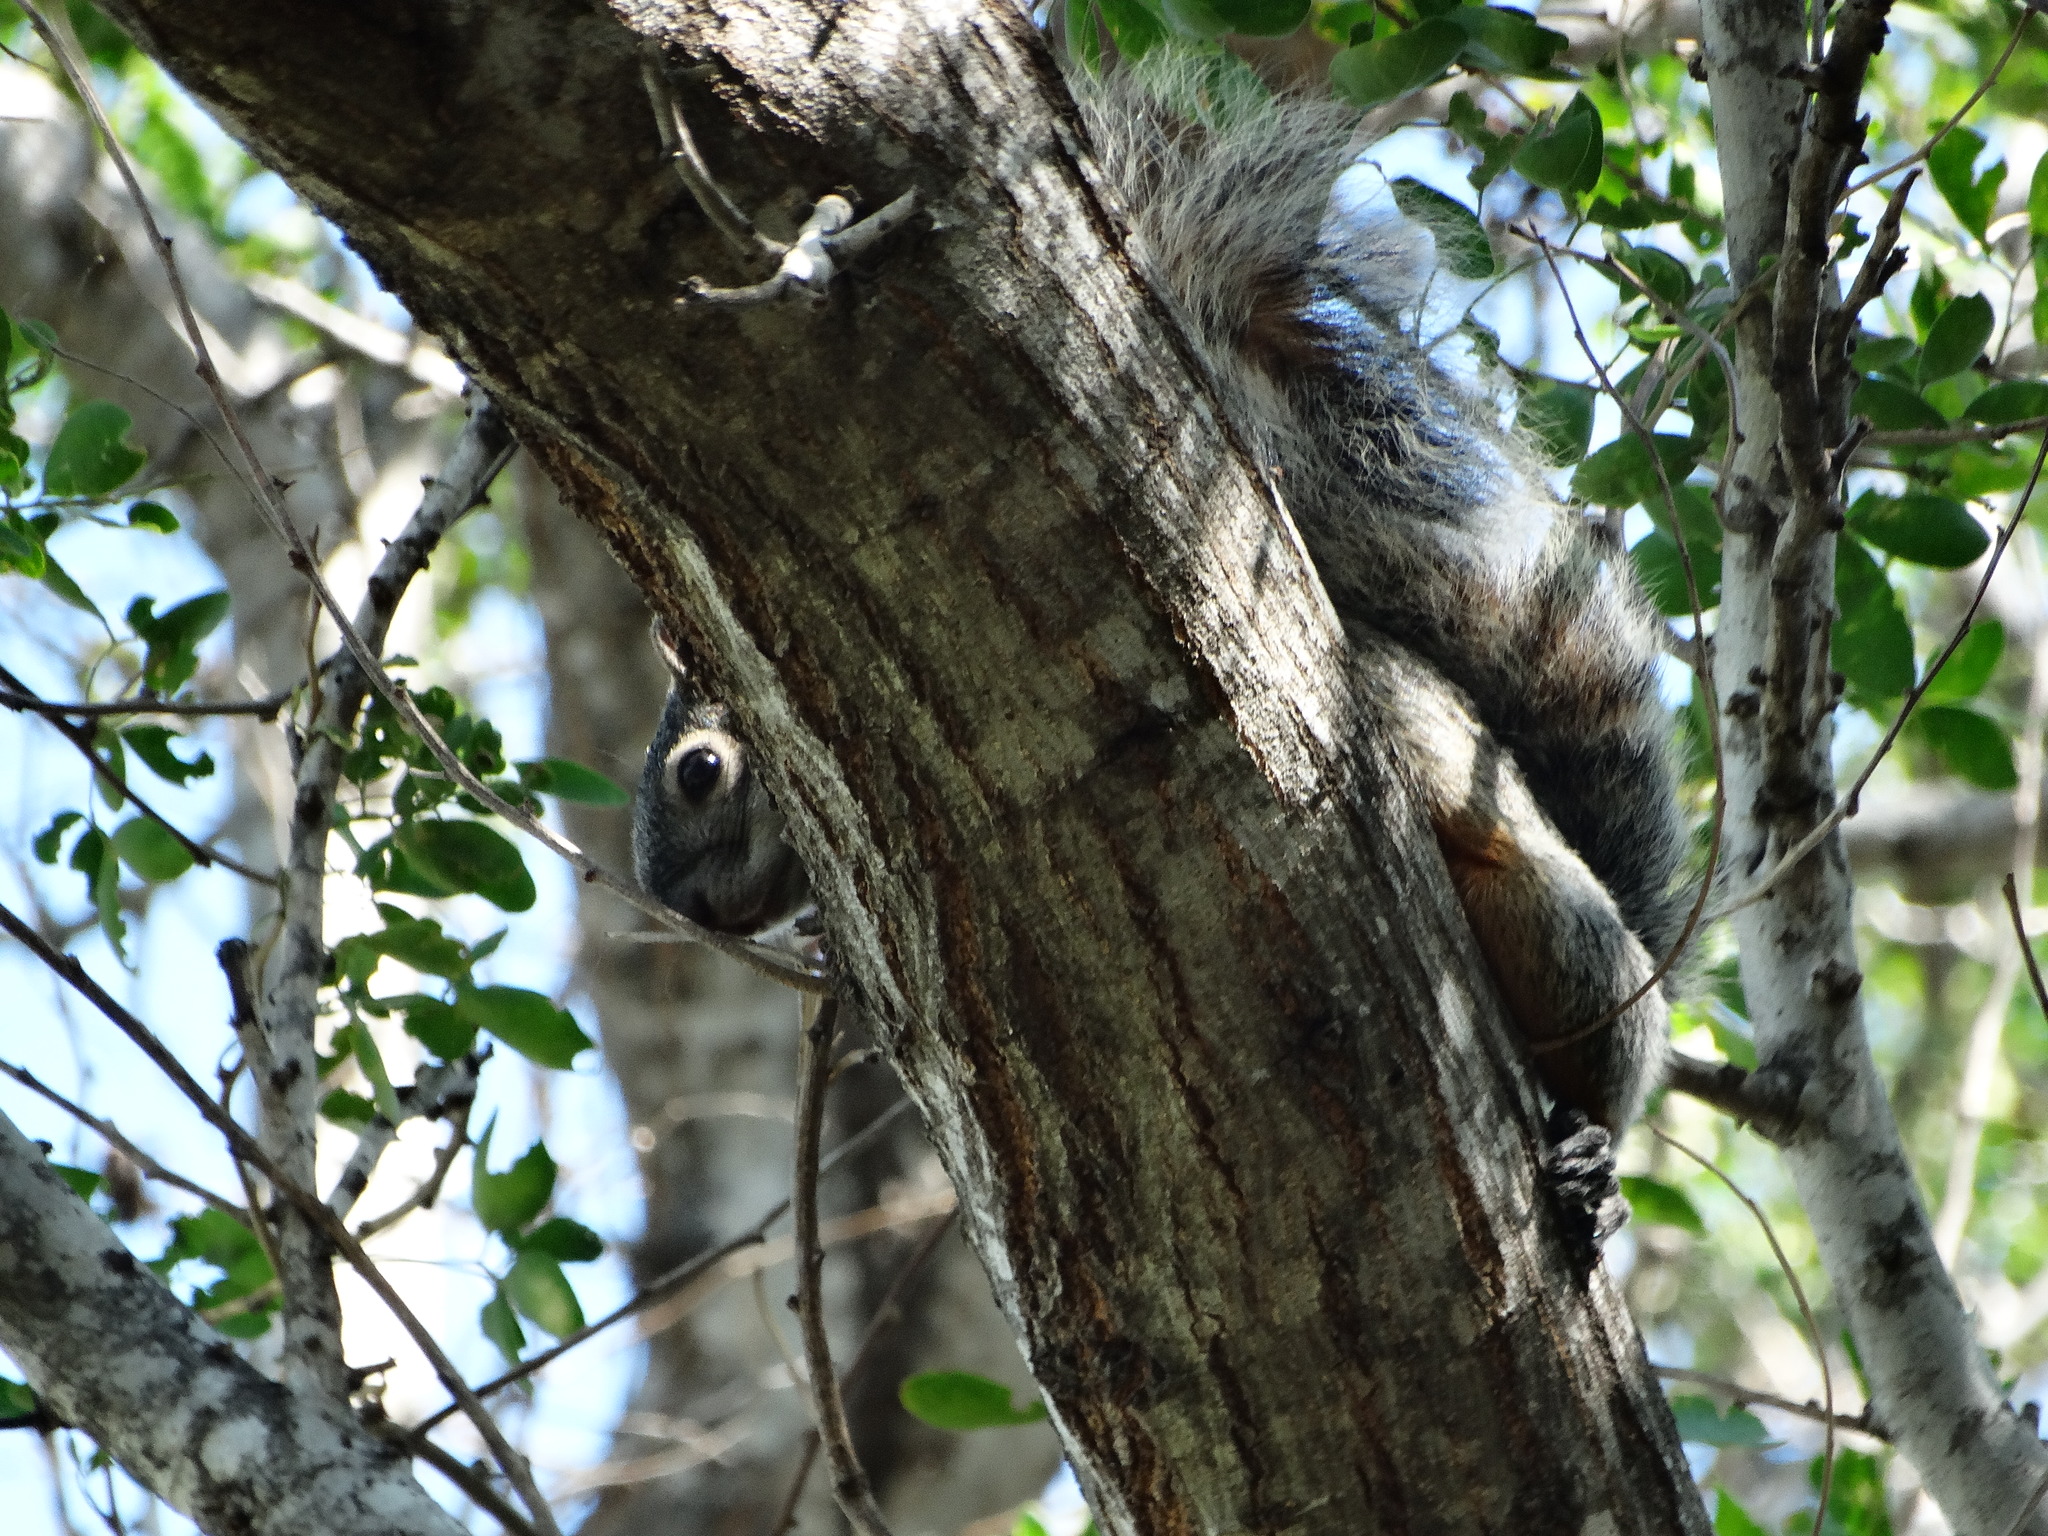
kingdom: Animalia
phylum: Chordata
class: Mammalia
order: Rodentia
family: Sciuridae
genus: Sciurus
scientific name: Sciurus aureogaster
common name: Red-bellied squirrel
